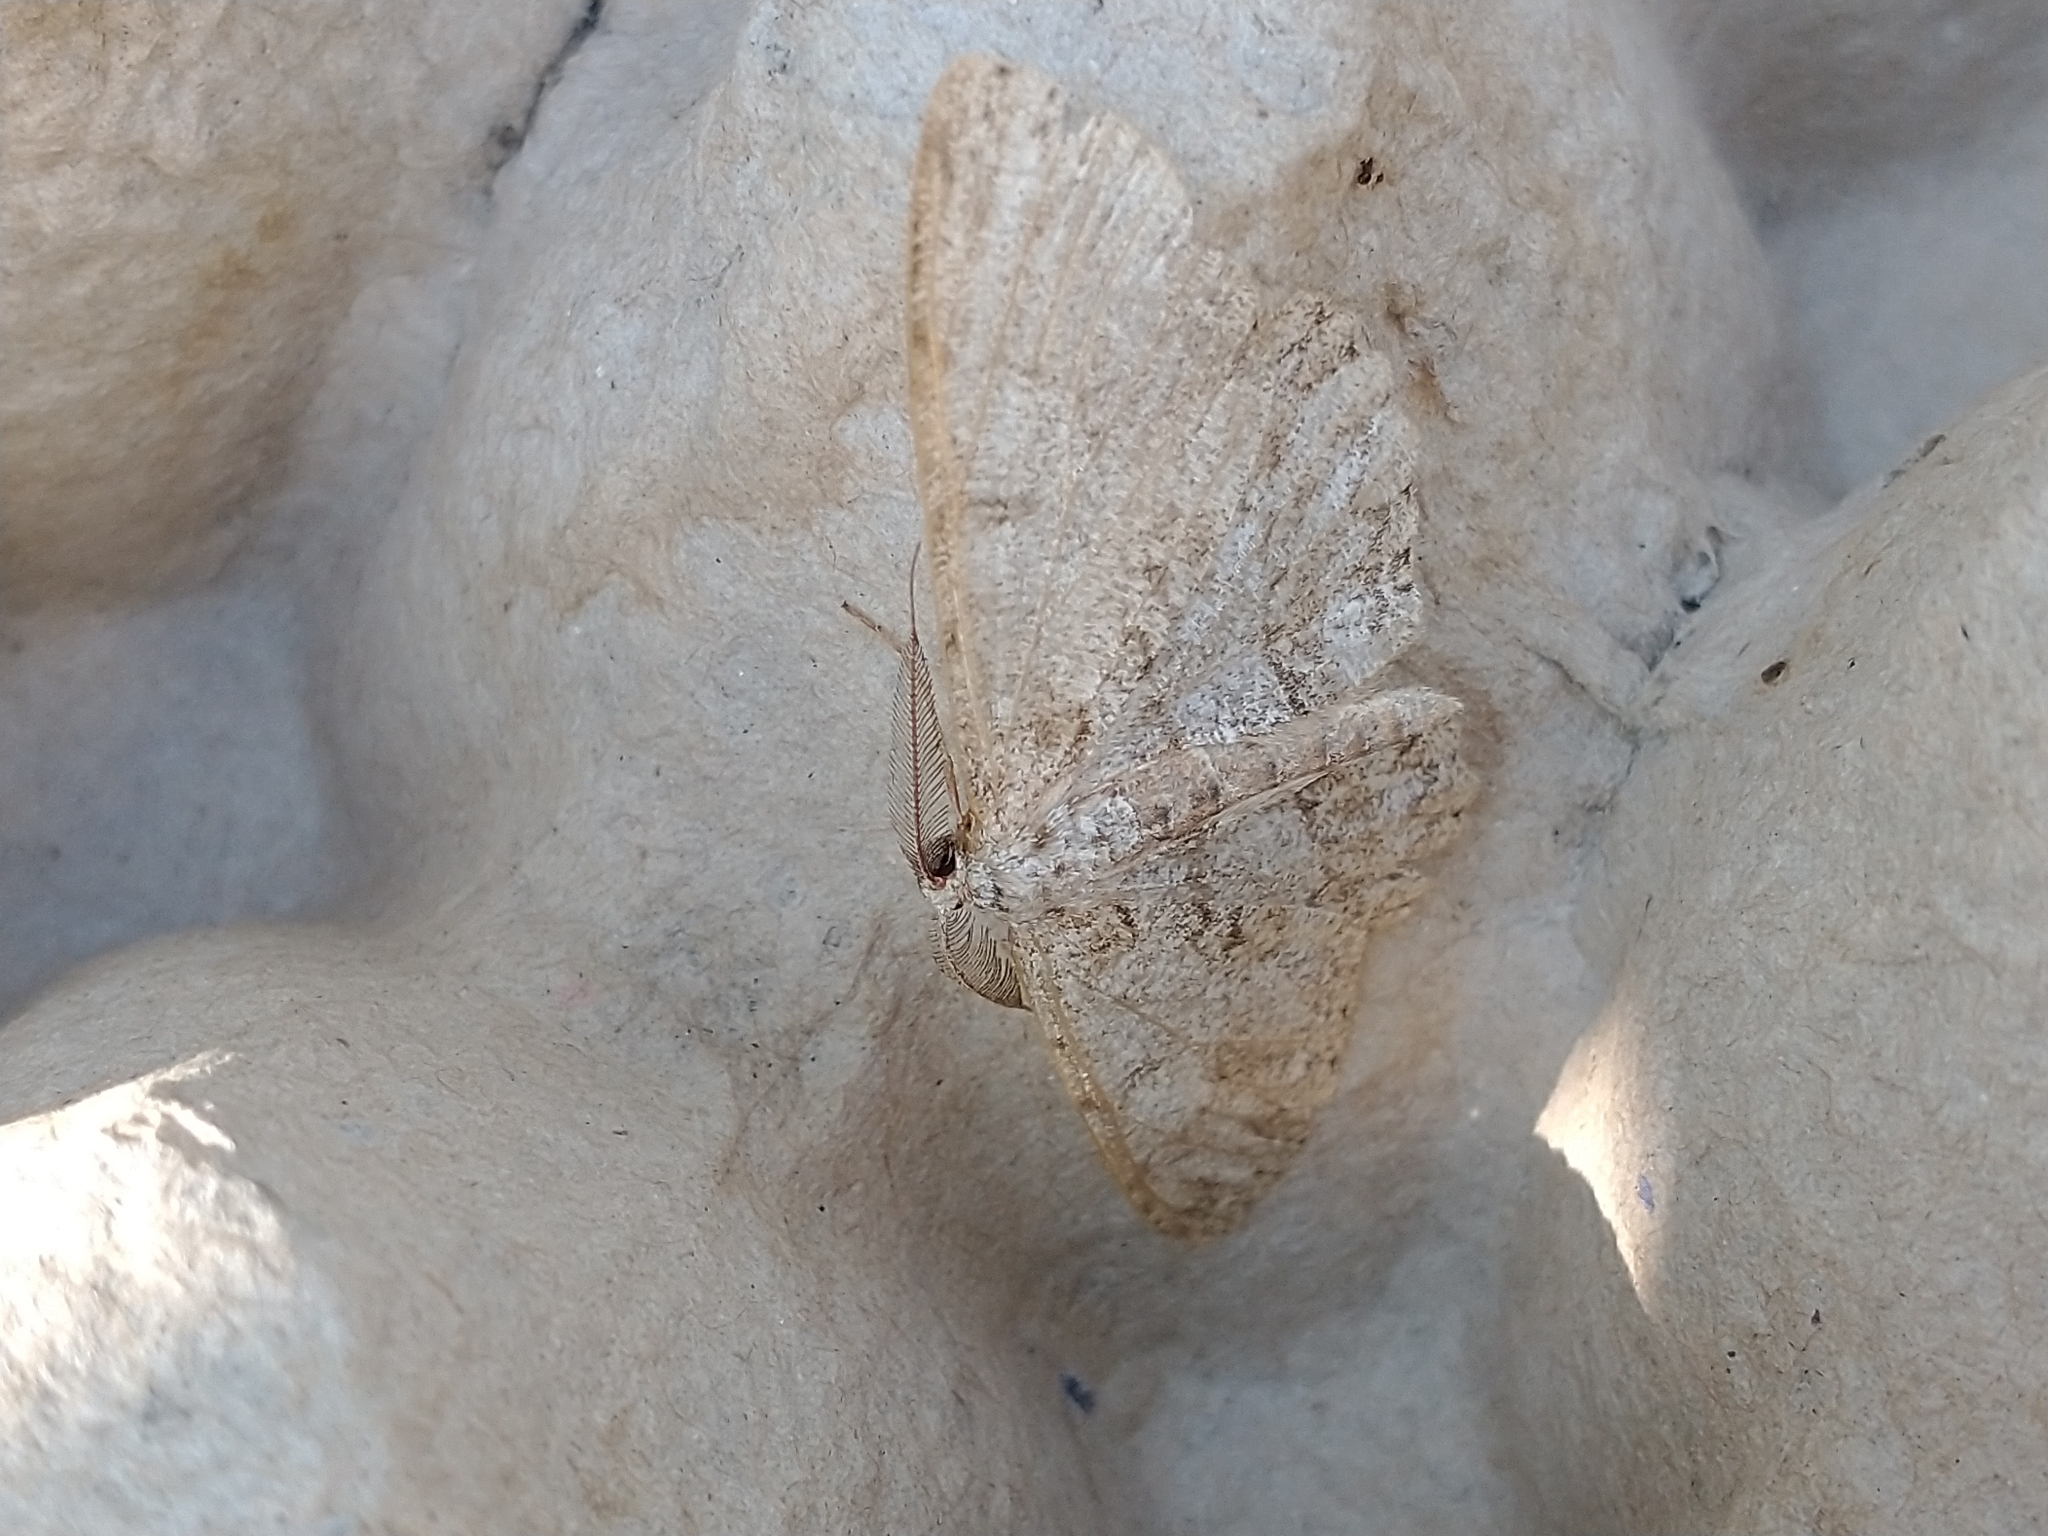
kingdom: Animalia
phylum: Arthropoda
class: Insecta
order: Lepidoptera
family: Geometridae
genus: Hypomecis
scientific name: Hypomecis punctinalis
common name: Pale oak beauty
